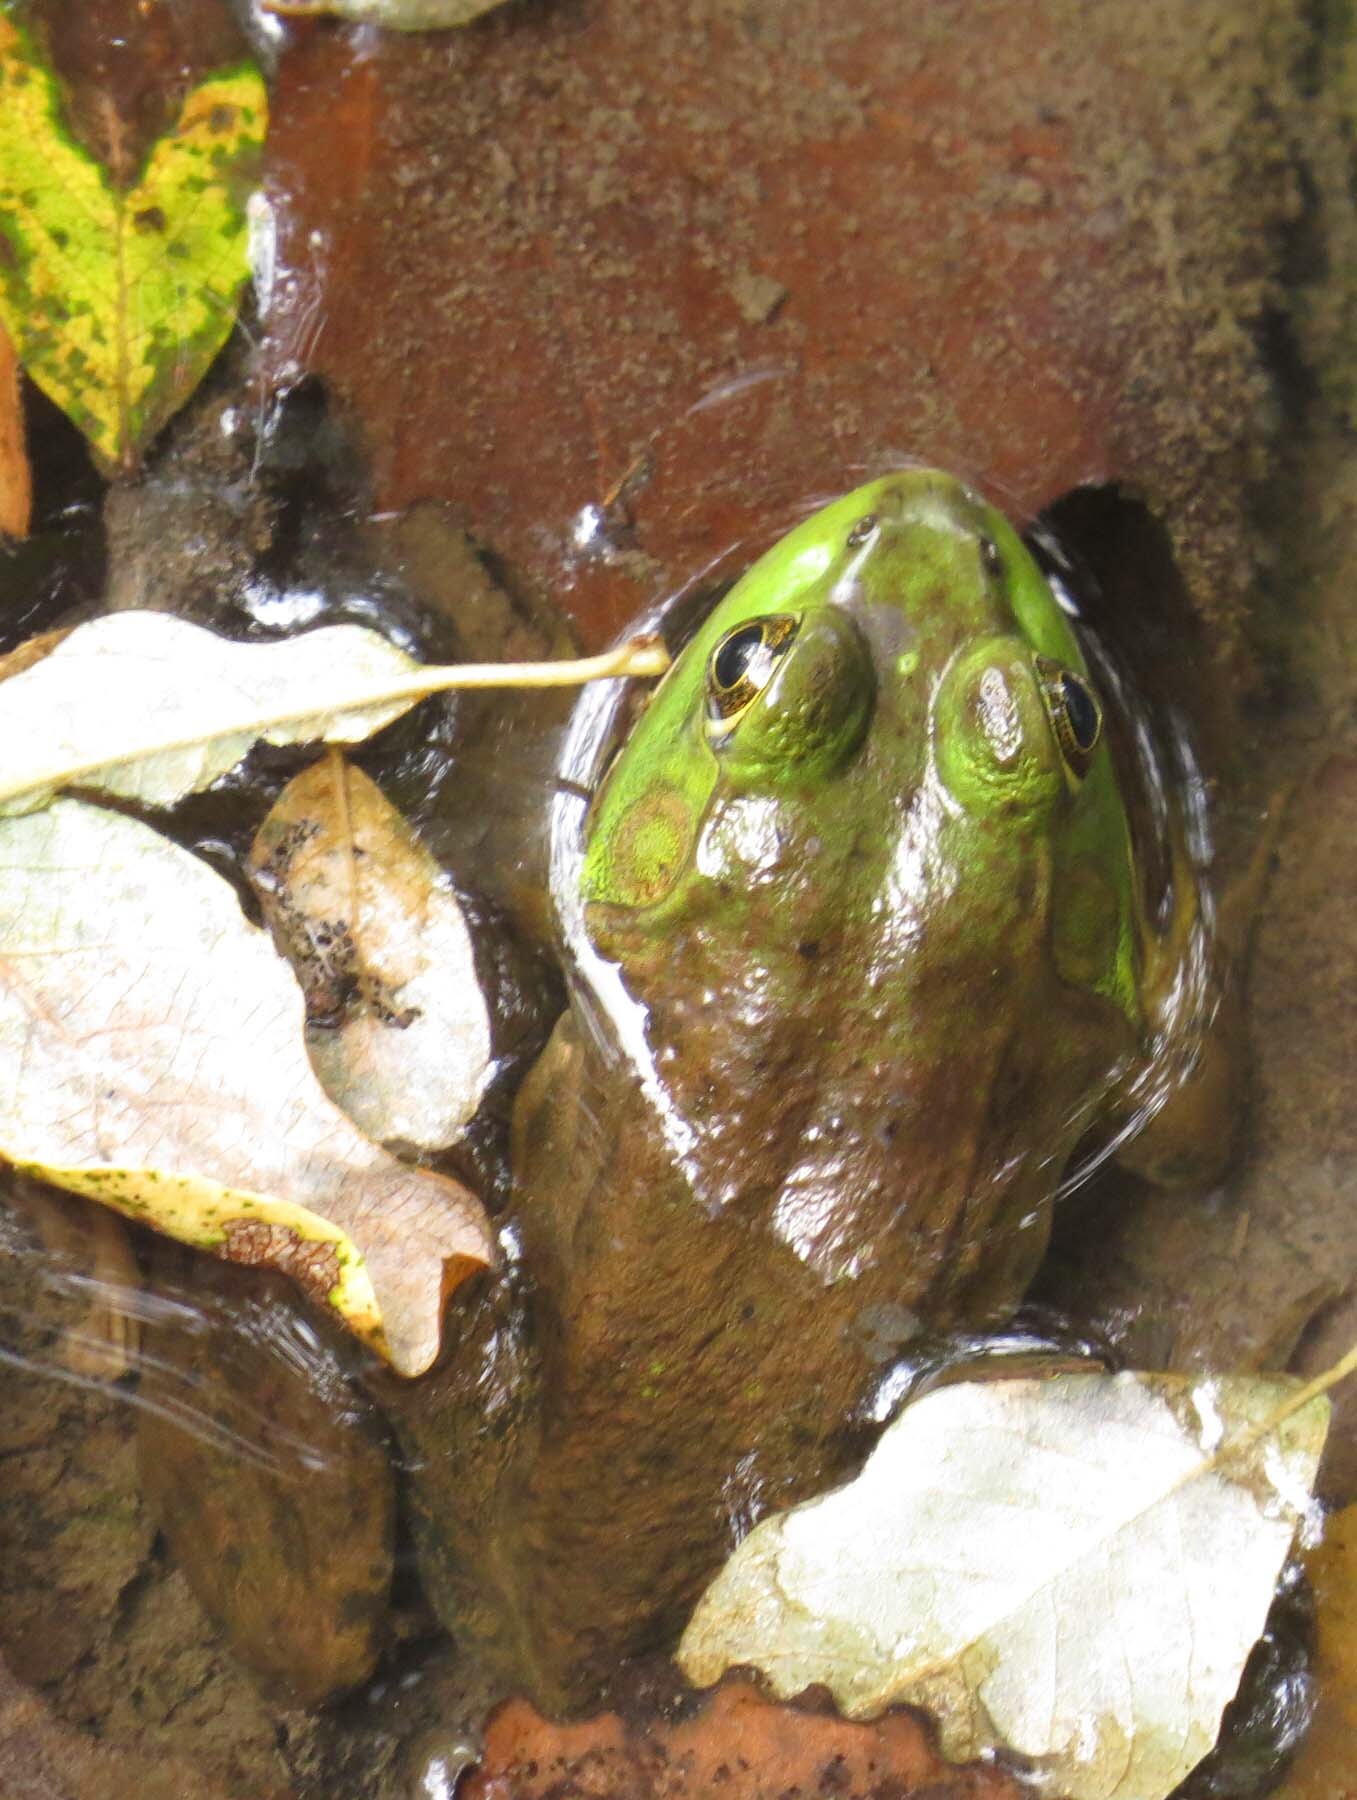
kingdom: Animalia
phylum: Chordata
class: Amphibia
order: Anura
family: Ranidae
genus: Lithobates
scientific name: Lithobates catesbeianus
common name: American bullfrog
